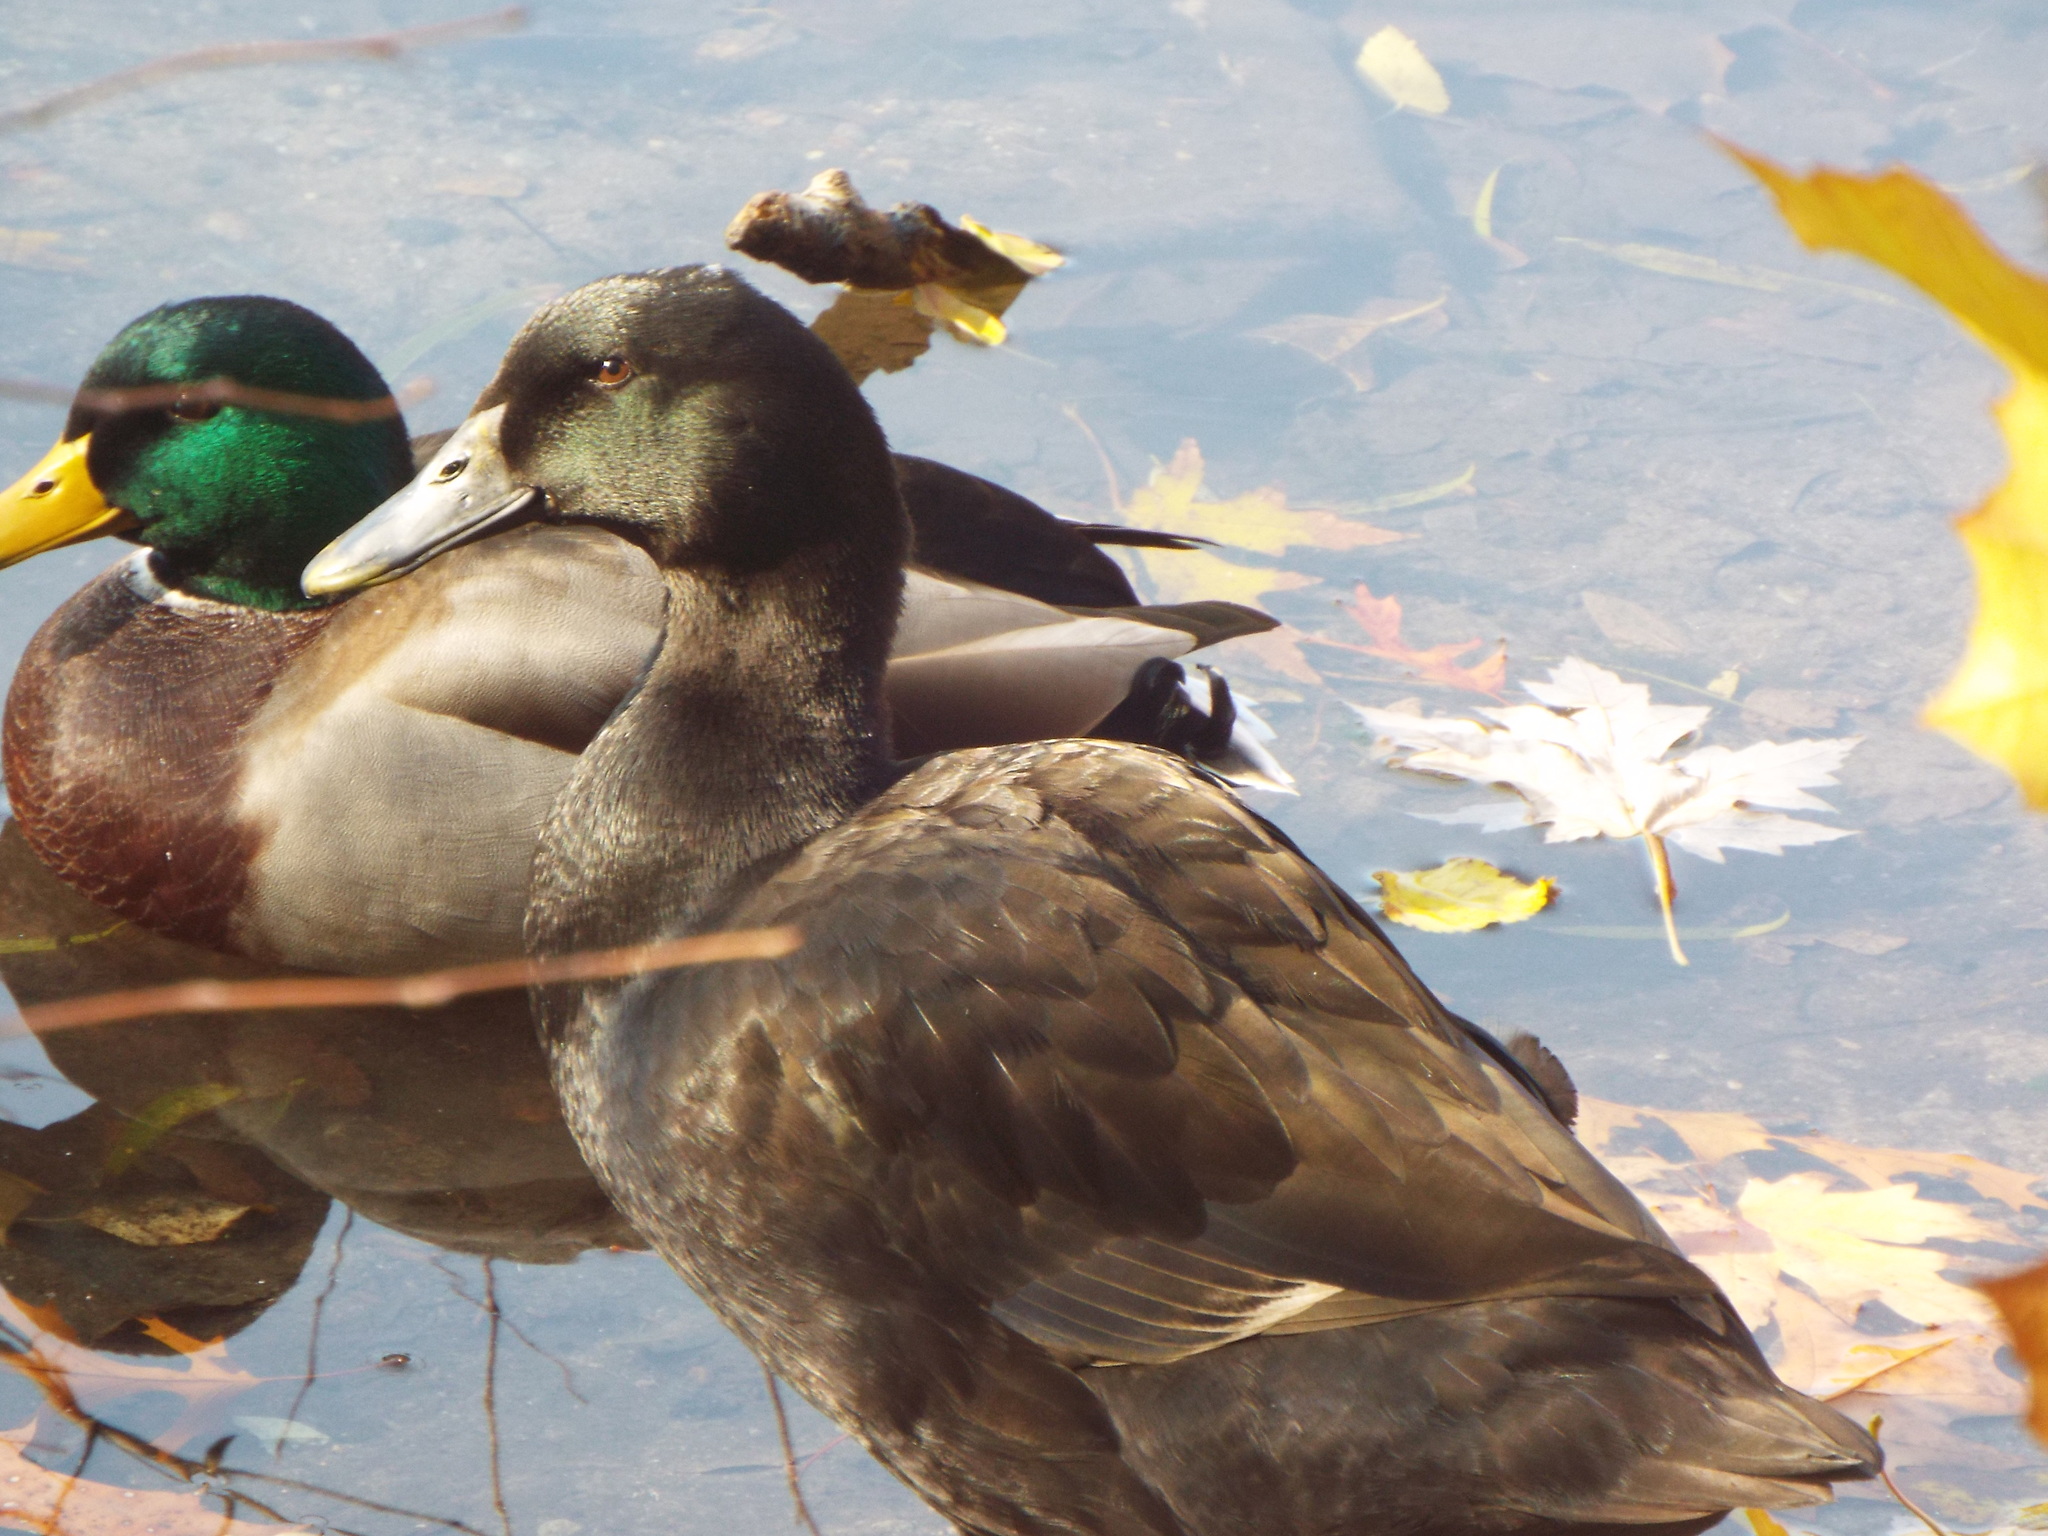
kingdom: Animalia
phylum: Chordata
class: Aves
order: Anseriformes
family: Anatidae
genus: Anas
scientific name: Anas platyrhynchos
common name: Mallard
